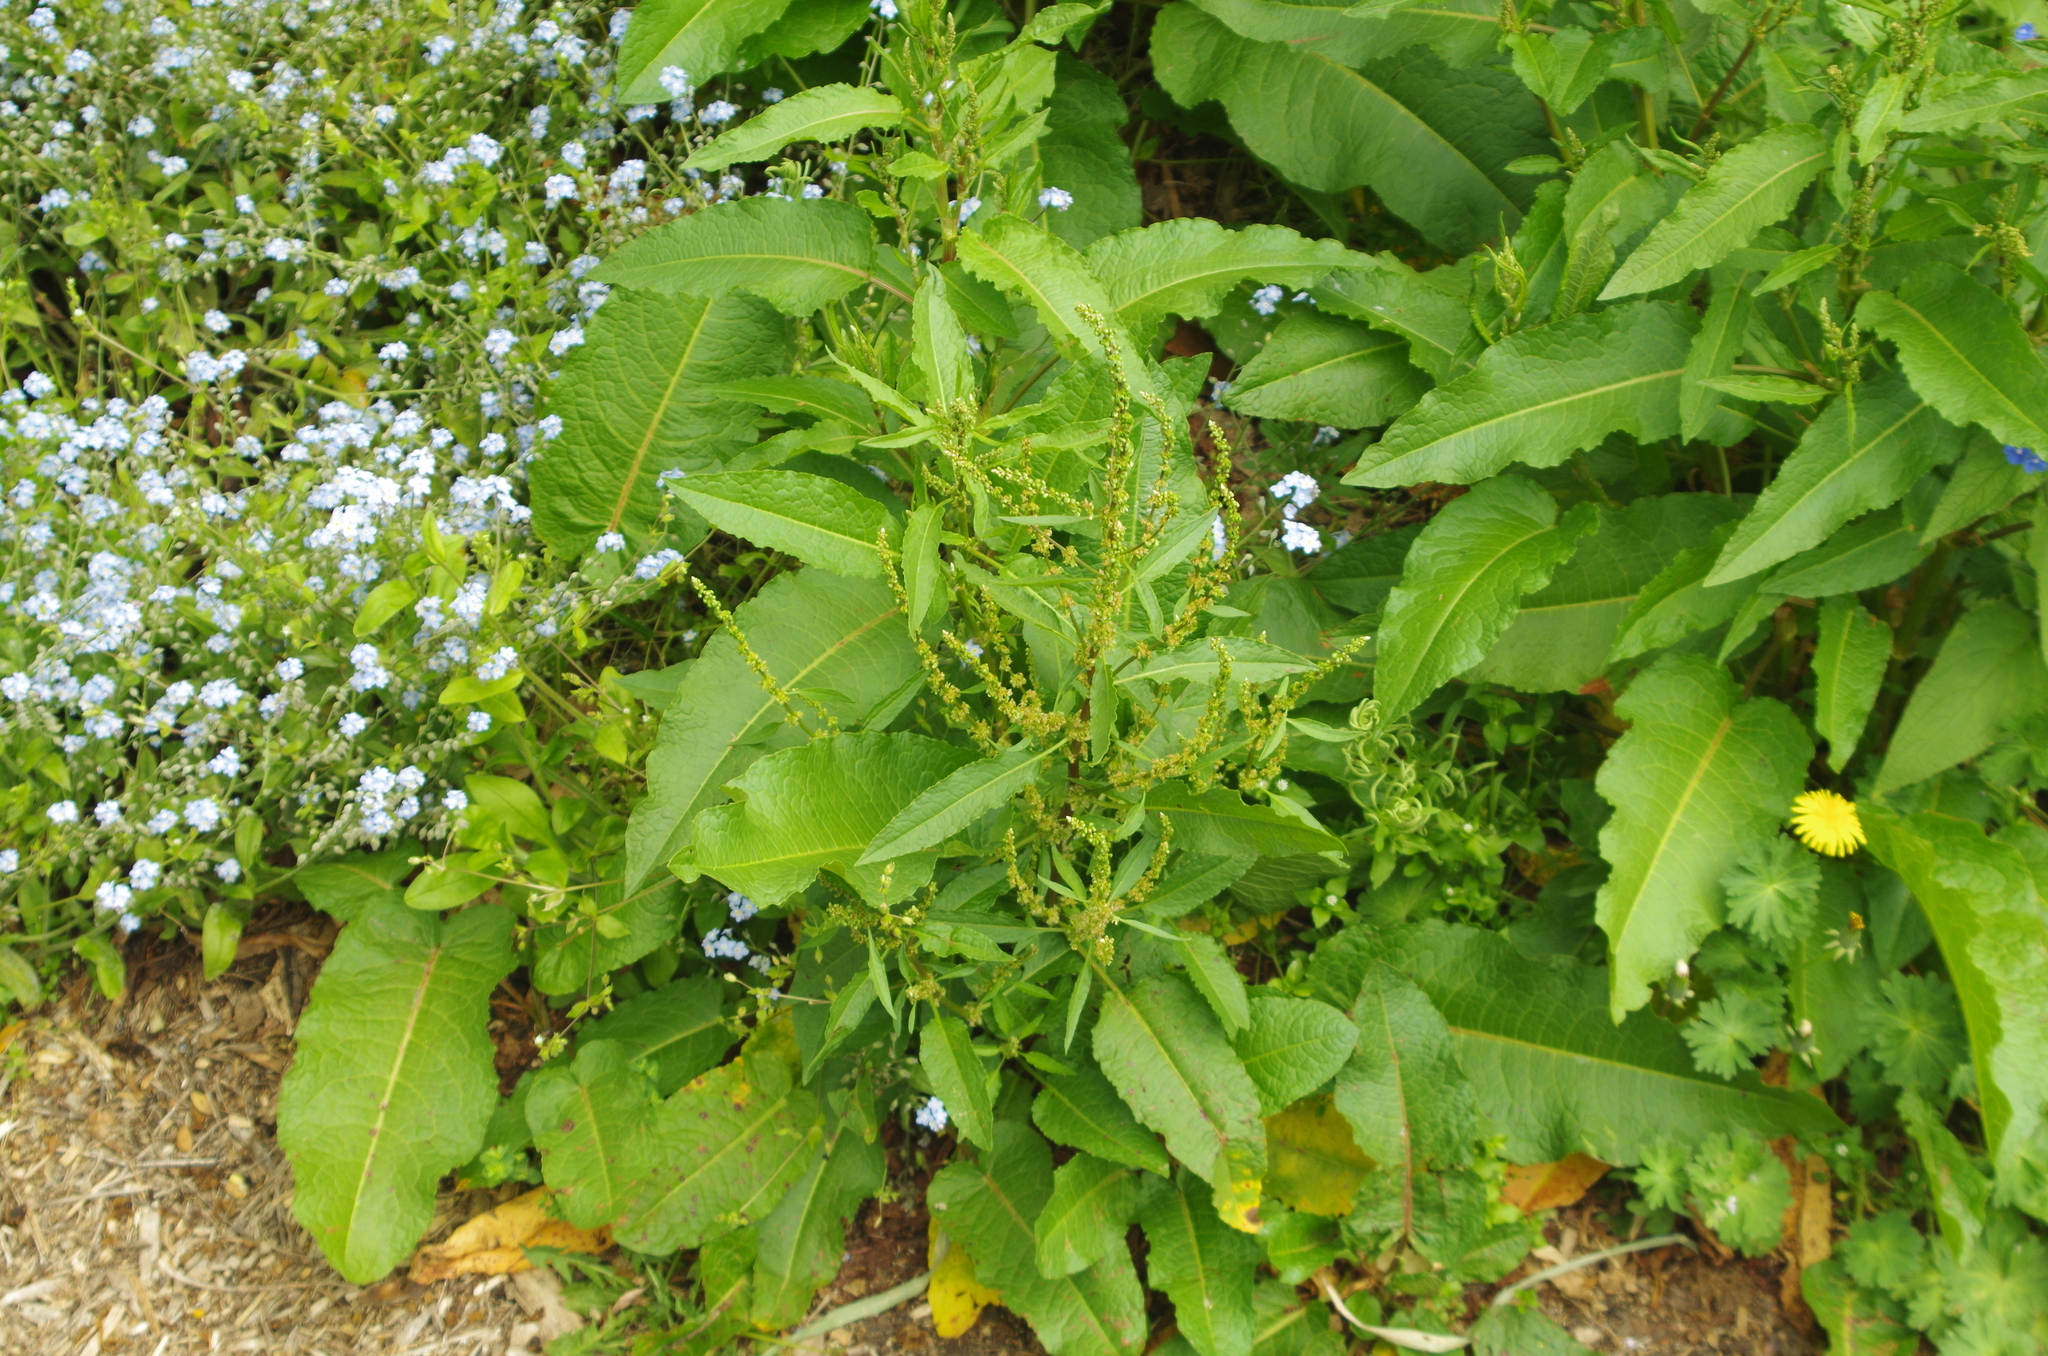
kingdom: Plantae
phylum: Tracheophyta
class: Magnoliopsida
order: Caryophyllales
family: Polygonaceae
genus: Rumex
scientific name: Rumex obtusifolius
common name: Bitter dock
